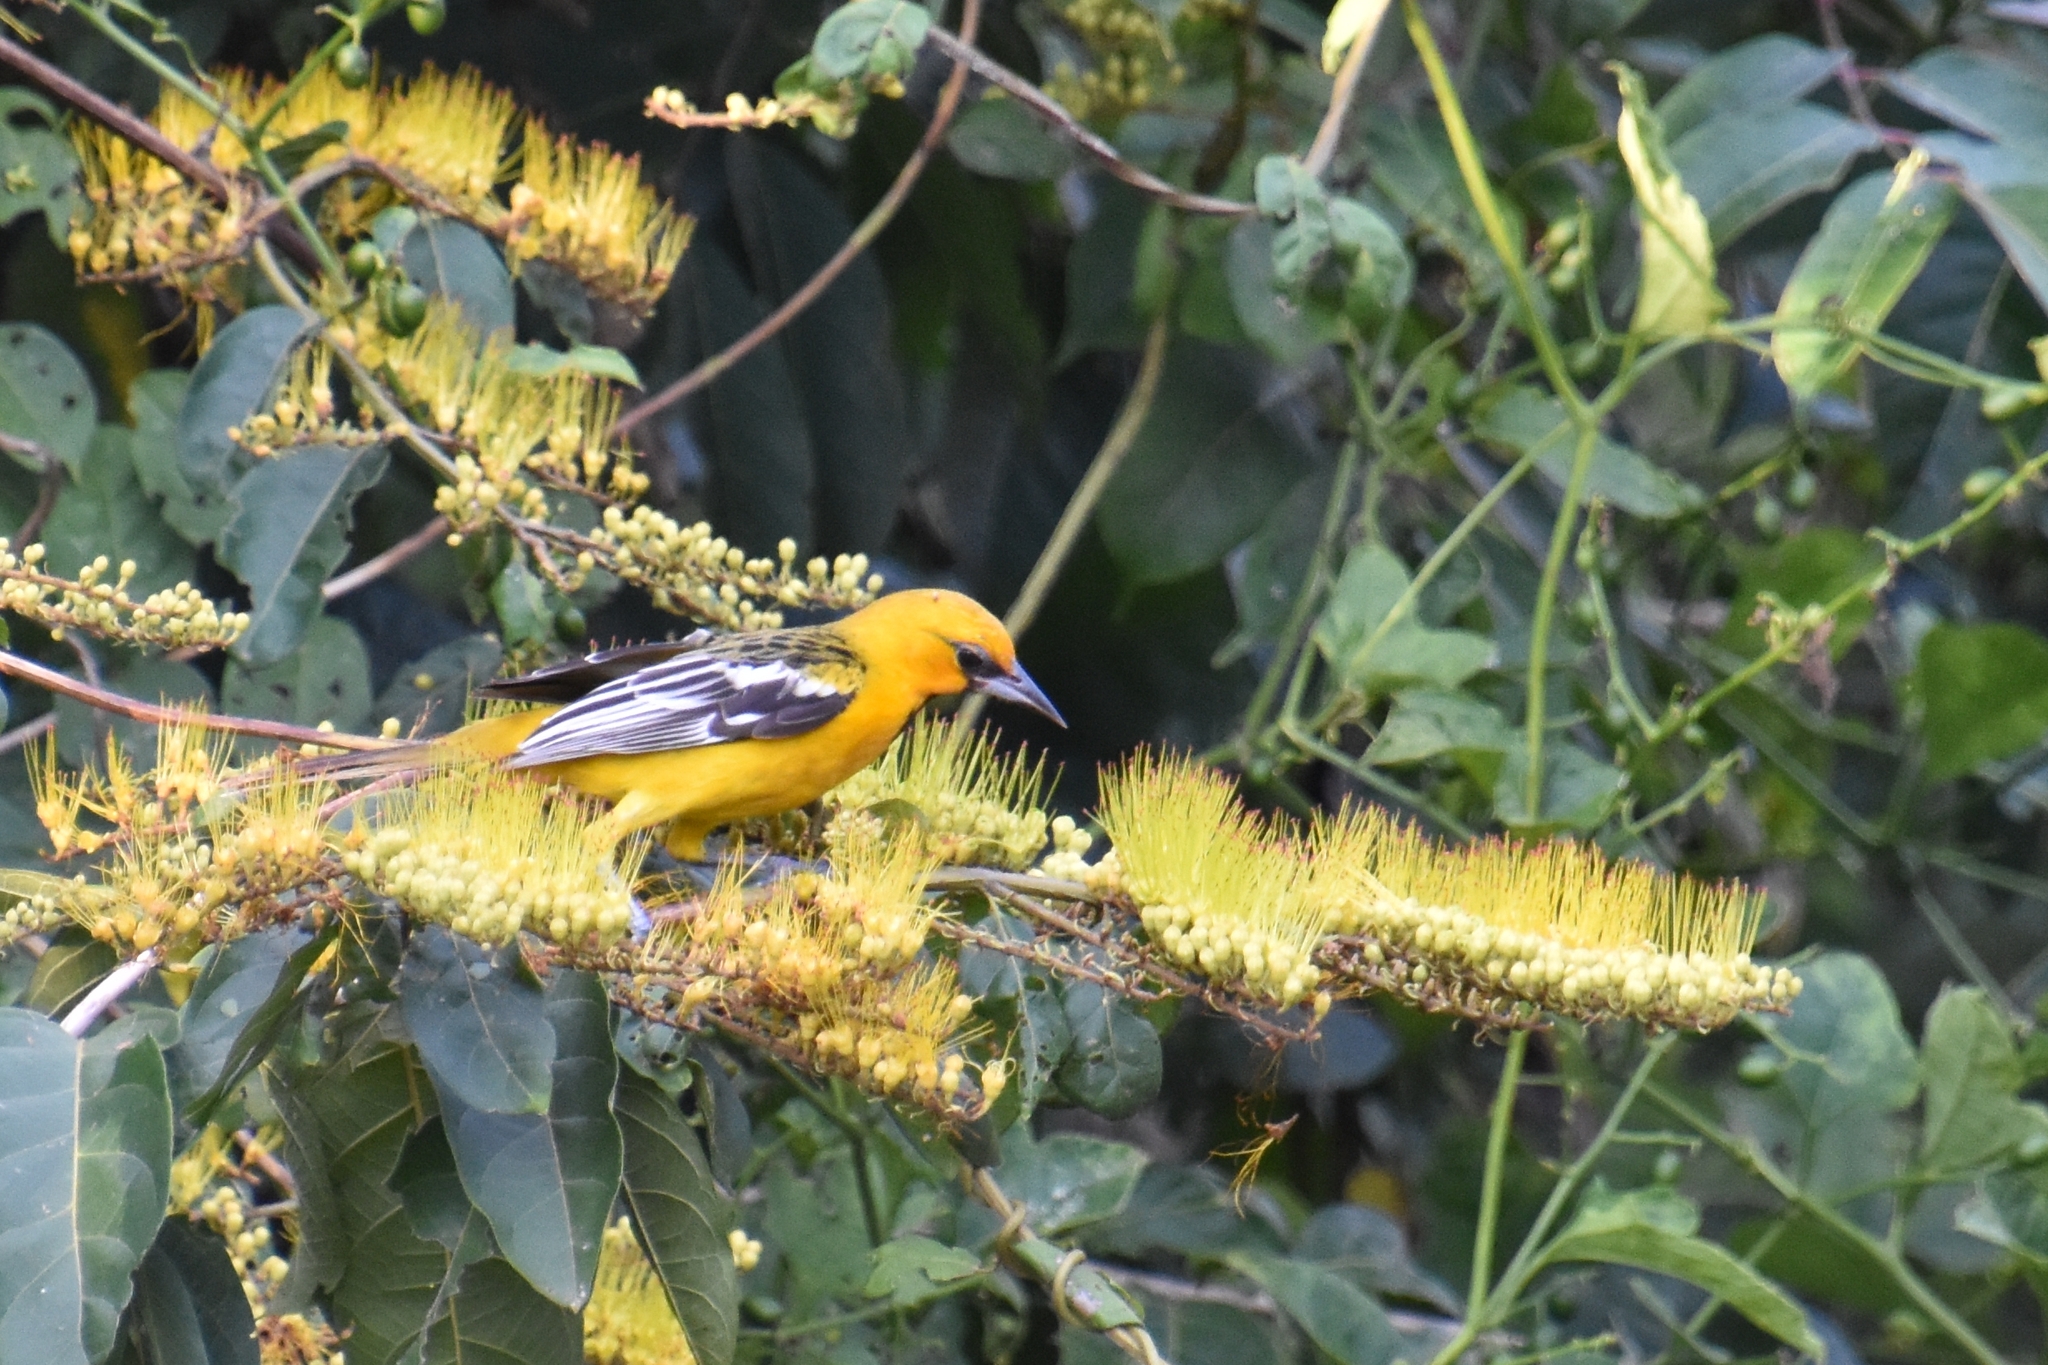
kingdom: Animalia
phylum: Chordata
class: Aves
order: Passeriformes
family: Icteridae
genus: Icterus
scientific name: Icterus pustulatus
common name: Streak-backed oriole
